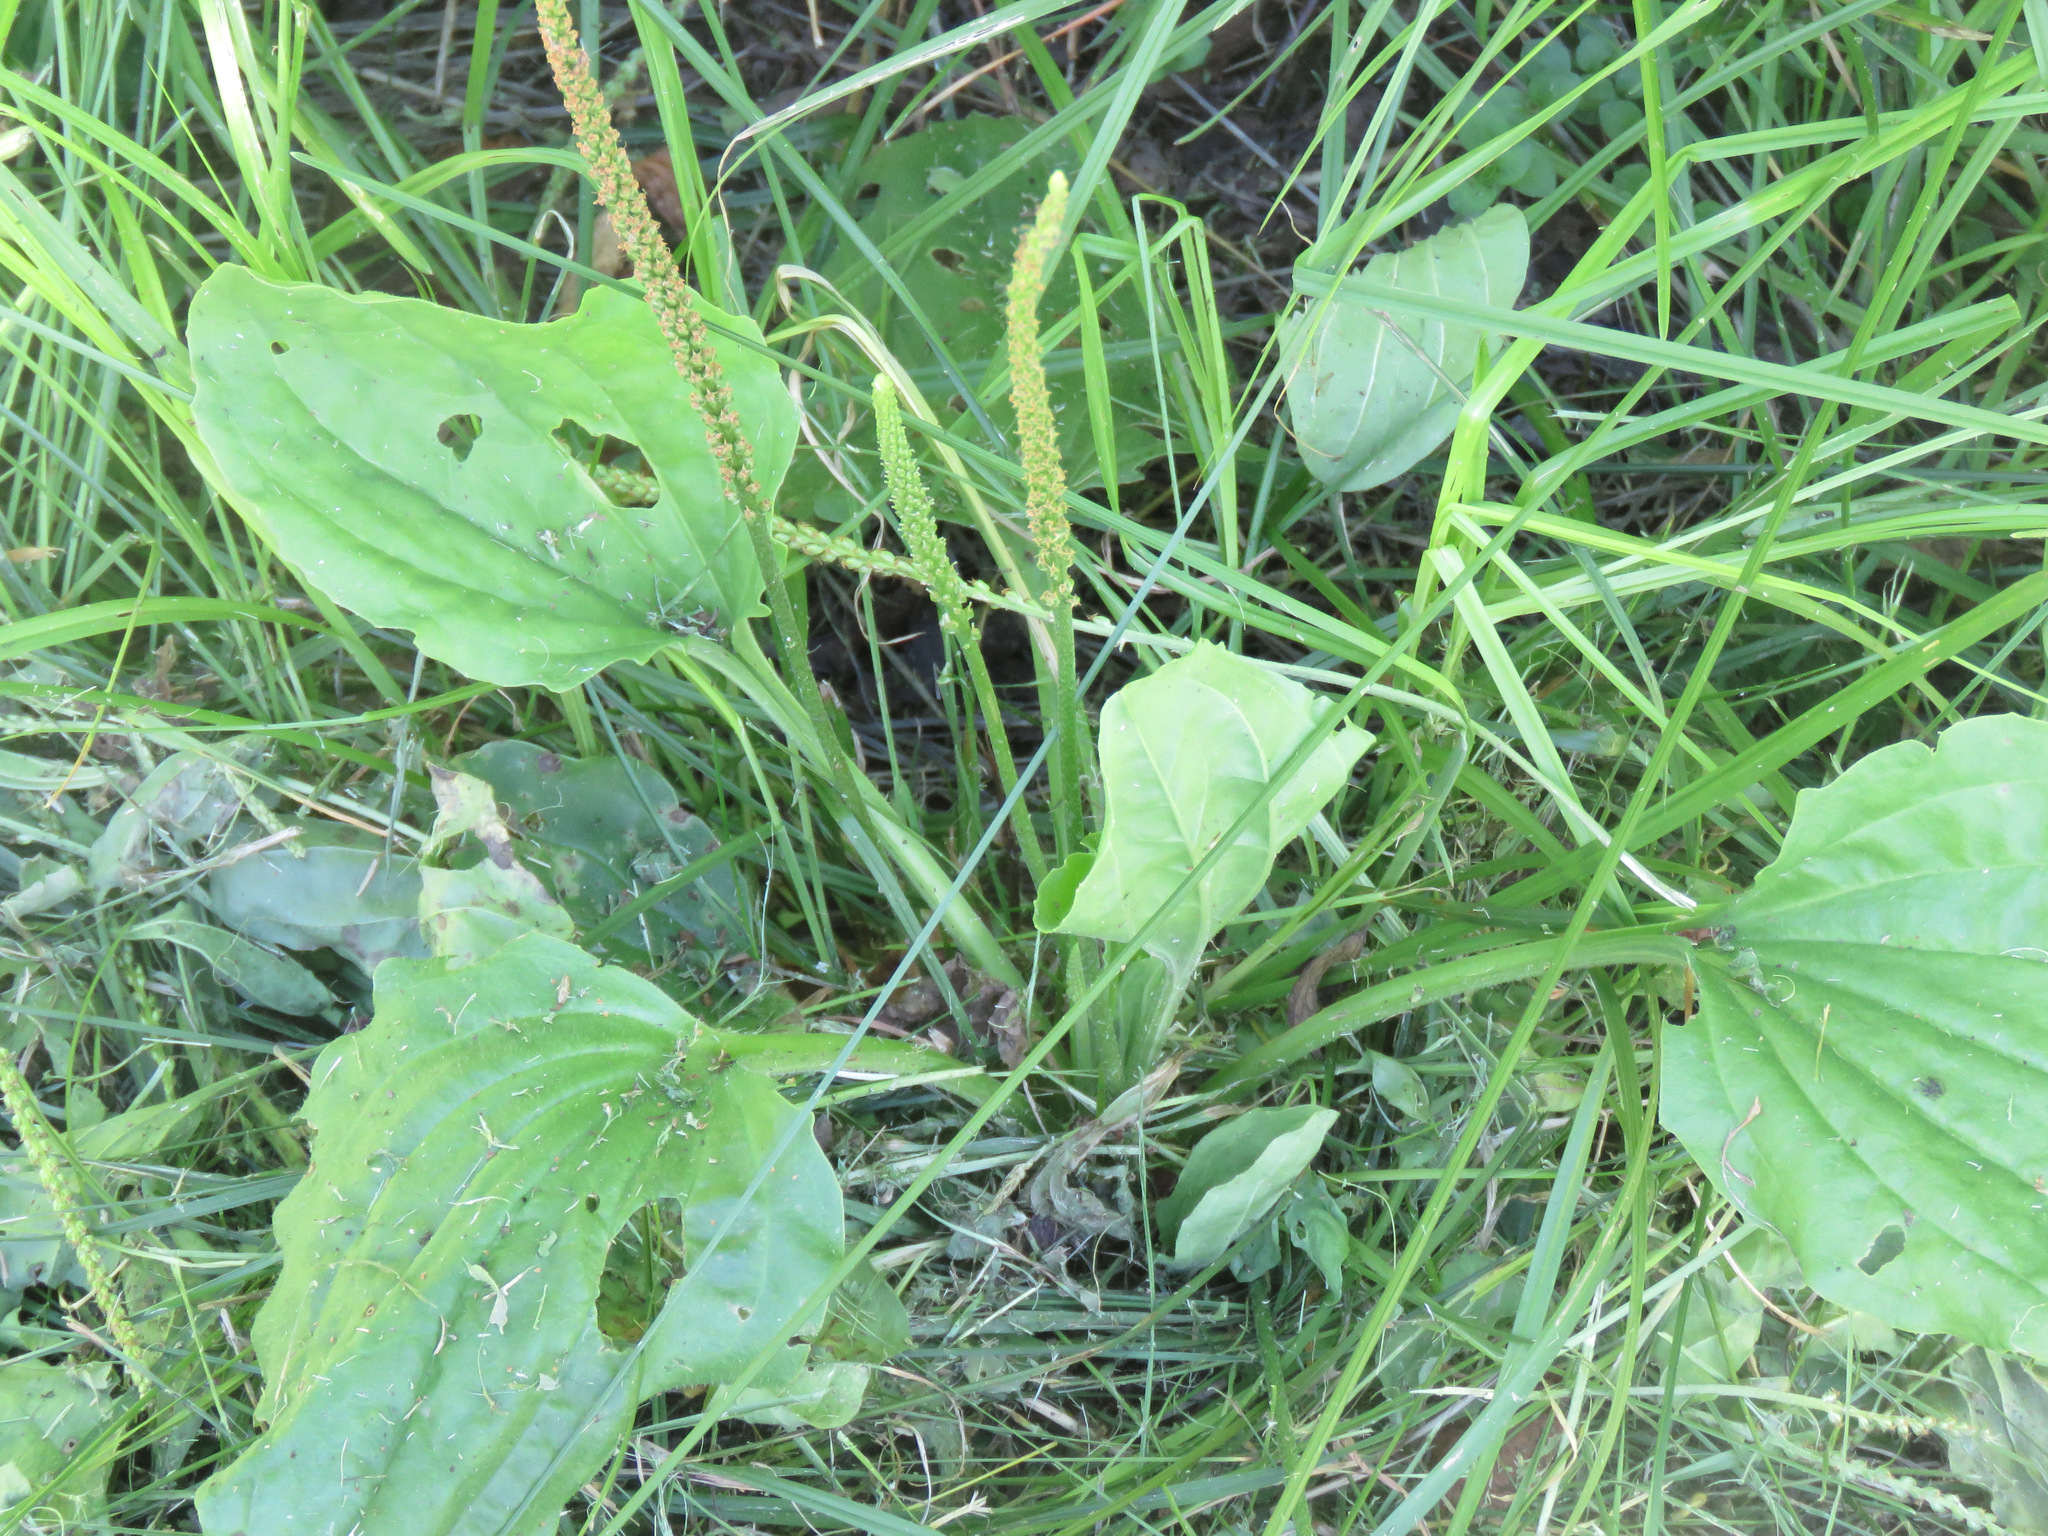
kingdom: Plantae
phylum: Tracheophyta
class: Magnoliopsida
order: Lamiales
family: Plantaginaceae
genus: Plantago
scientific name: Plantago major
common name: Common plantain
